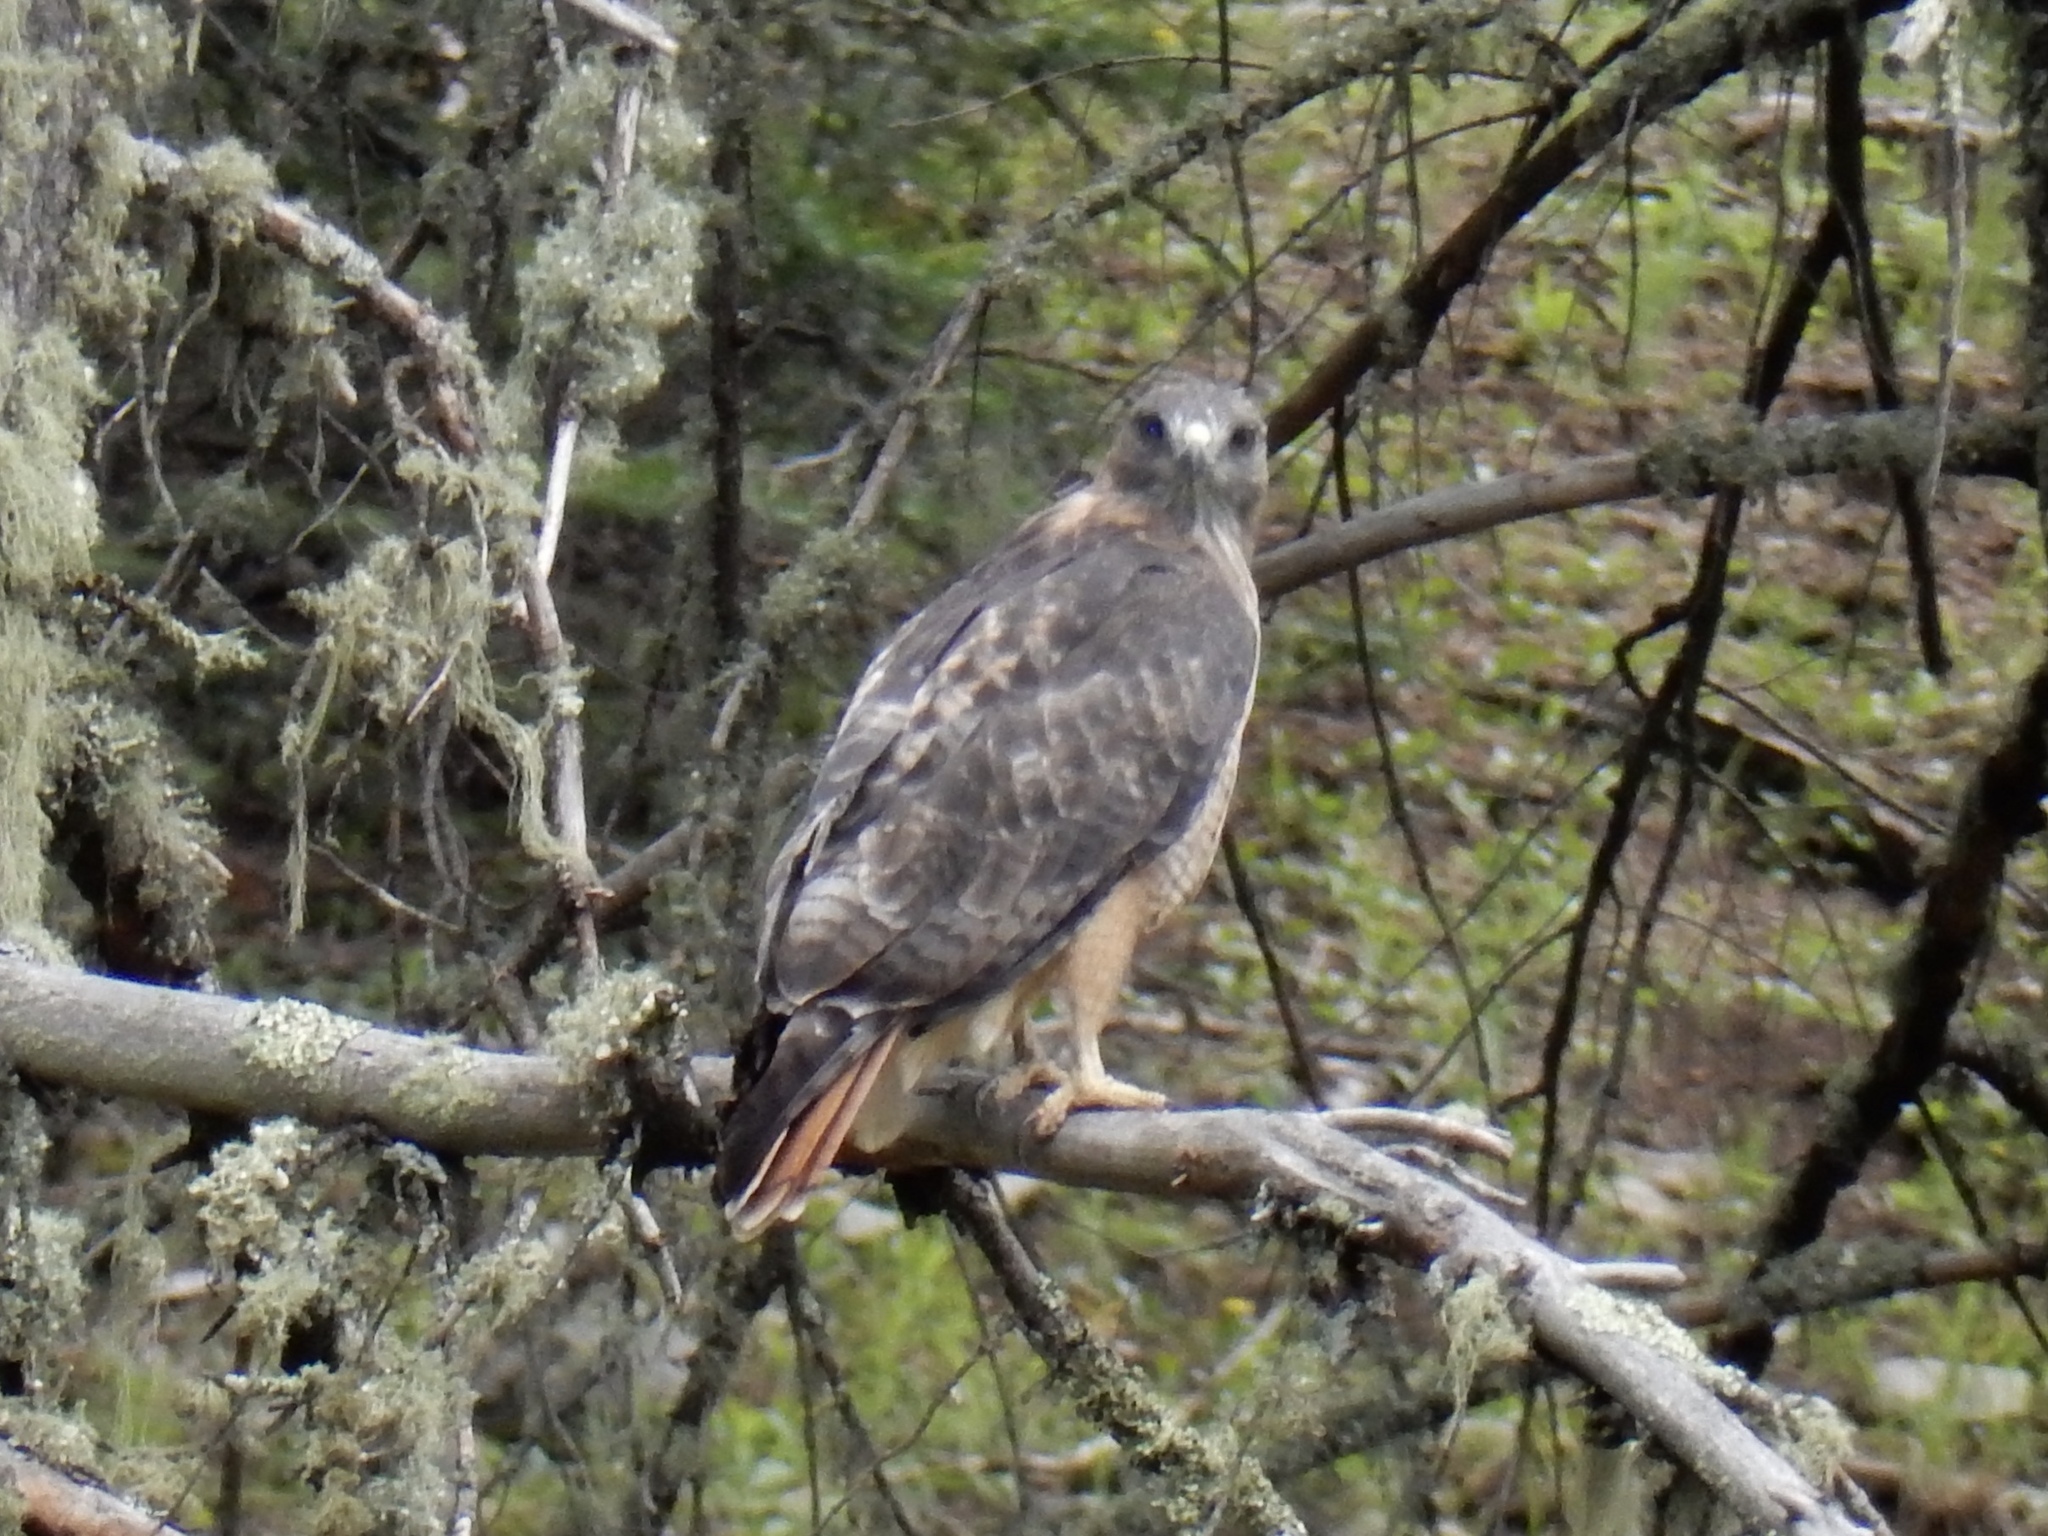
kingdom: Animalia
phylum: Chordata
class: Aves
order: Accipitriformes
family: Accipitridae
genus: Buteo
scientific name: Buteo jamaicensis
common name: Red-tailed hawk
